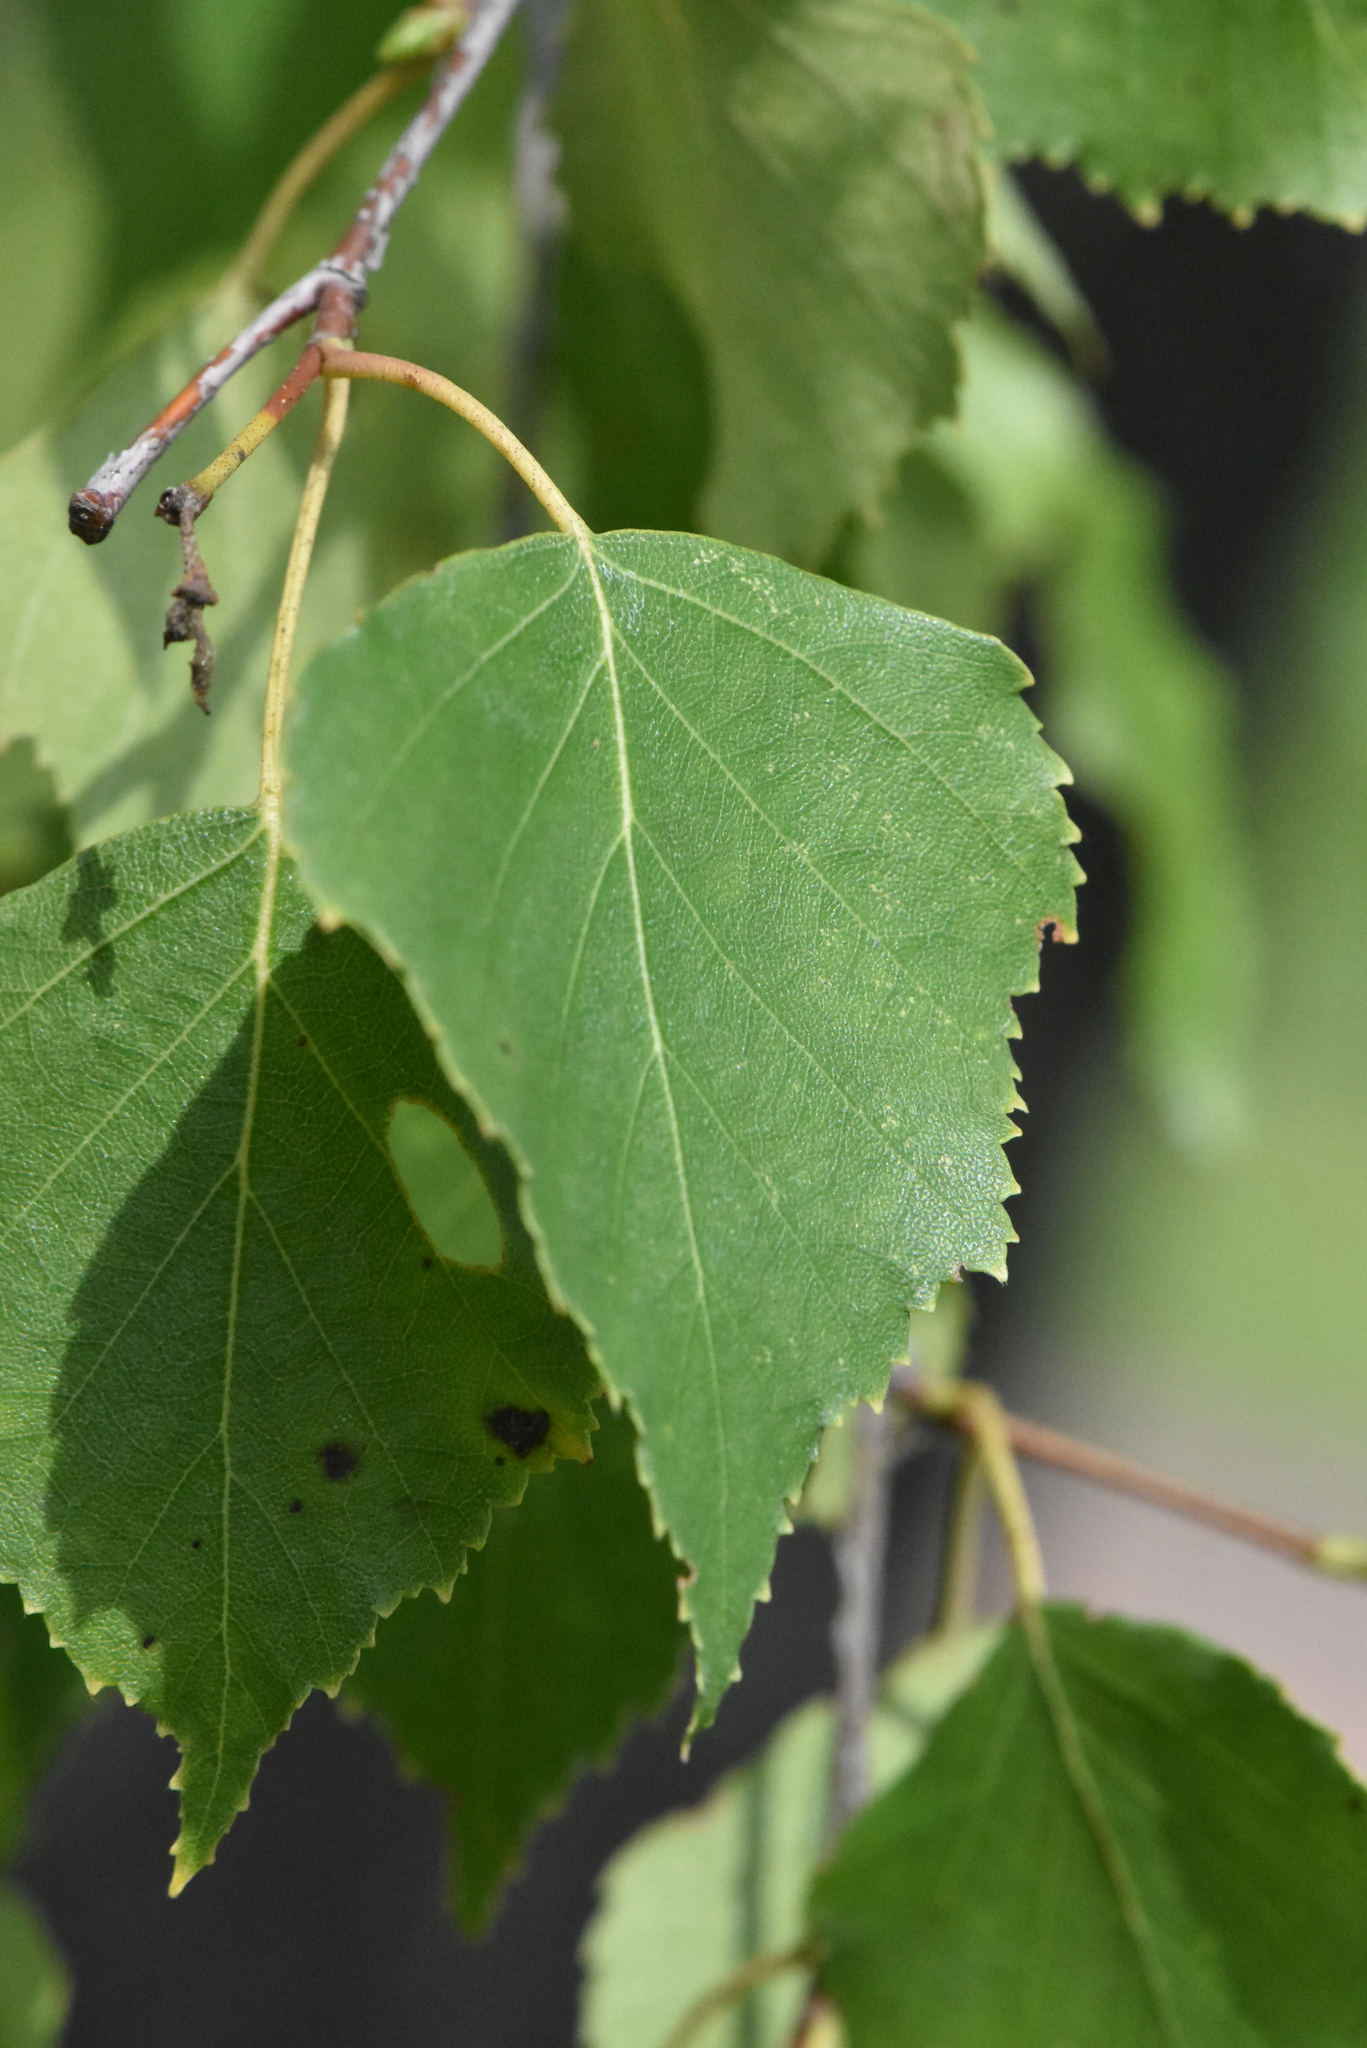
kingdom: Plantae
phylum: Tracheophyta
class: Magnoliopsida
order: Fagales
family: Betulaceae
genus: Betula
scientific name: Betula pendula
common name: Silver birch
